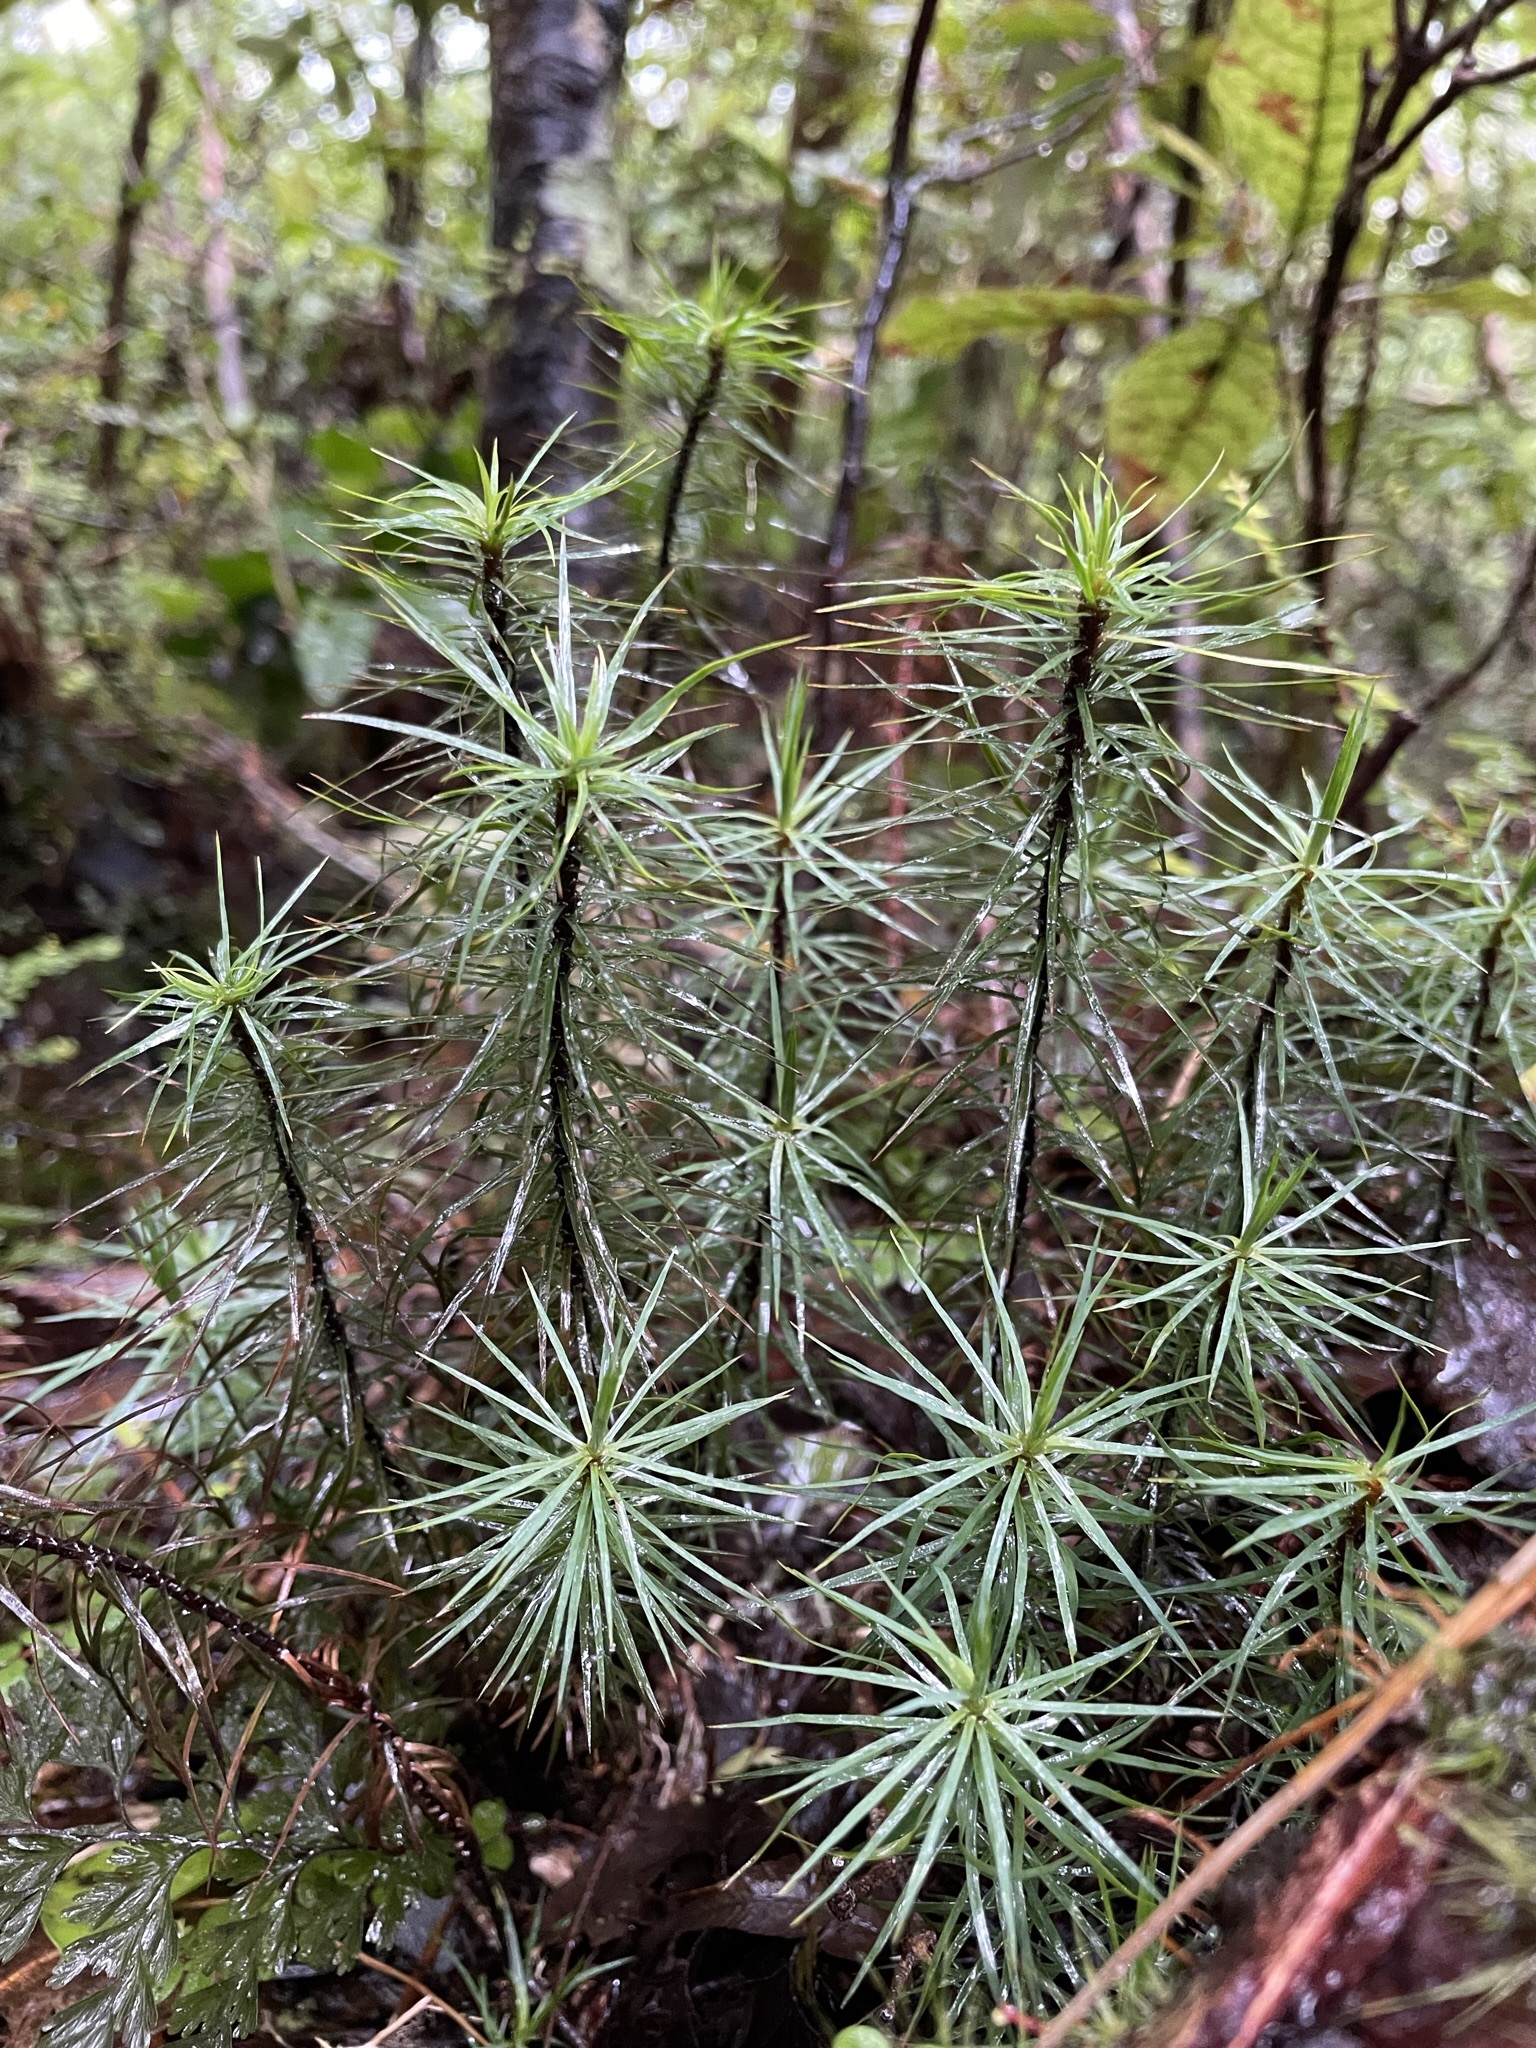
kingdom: Plantae
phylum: Bryophyta
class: Polytrichopsida
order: Polytrichales
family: Polytrichaceae
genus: Dawsonia
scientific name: Dawsonia superba
